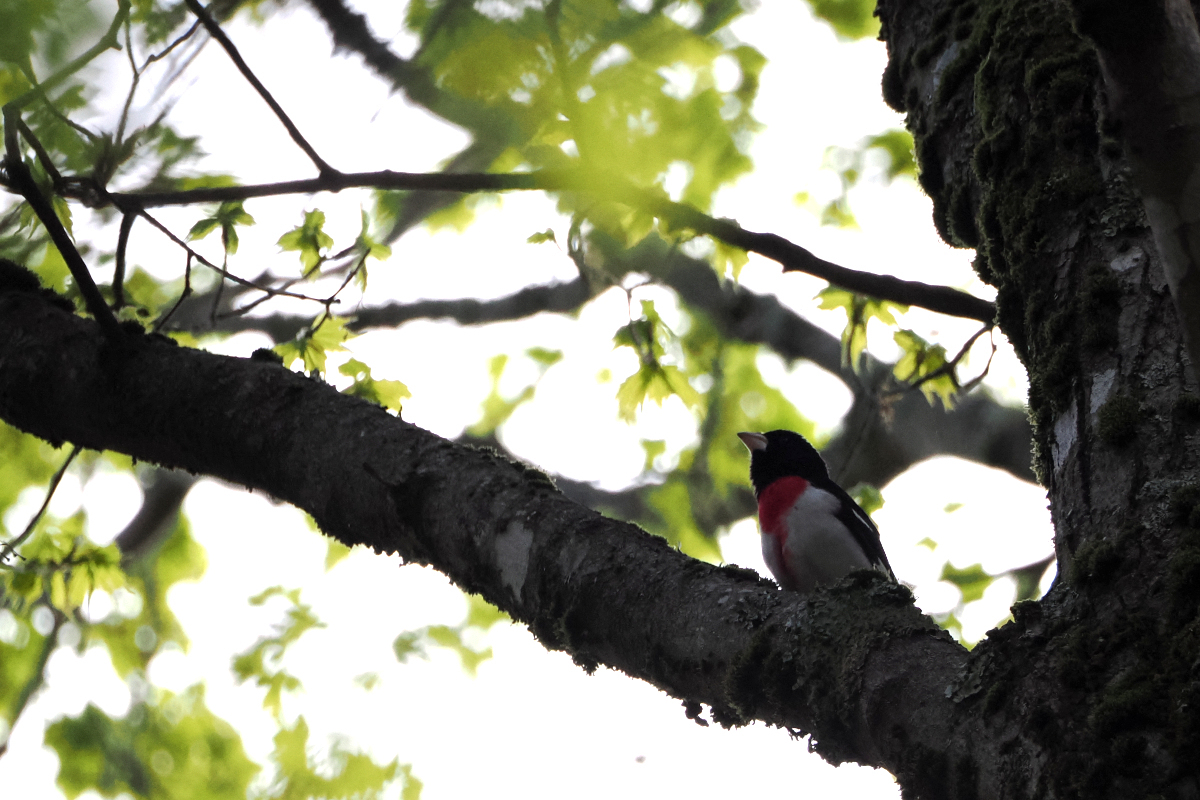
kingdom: Animalia
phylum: Chordata
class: Aves
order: Passeriformes
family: Cardinalidae
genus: Pheucticus
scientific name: Pheucticus ludovicianus
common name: Rose-breasted grosbeak
